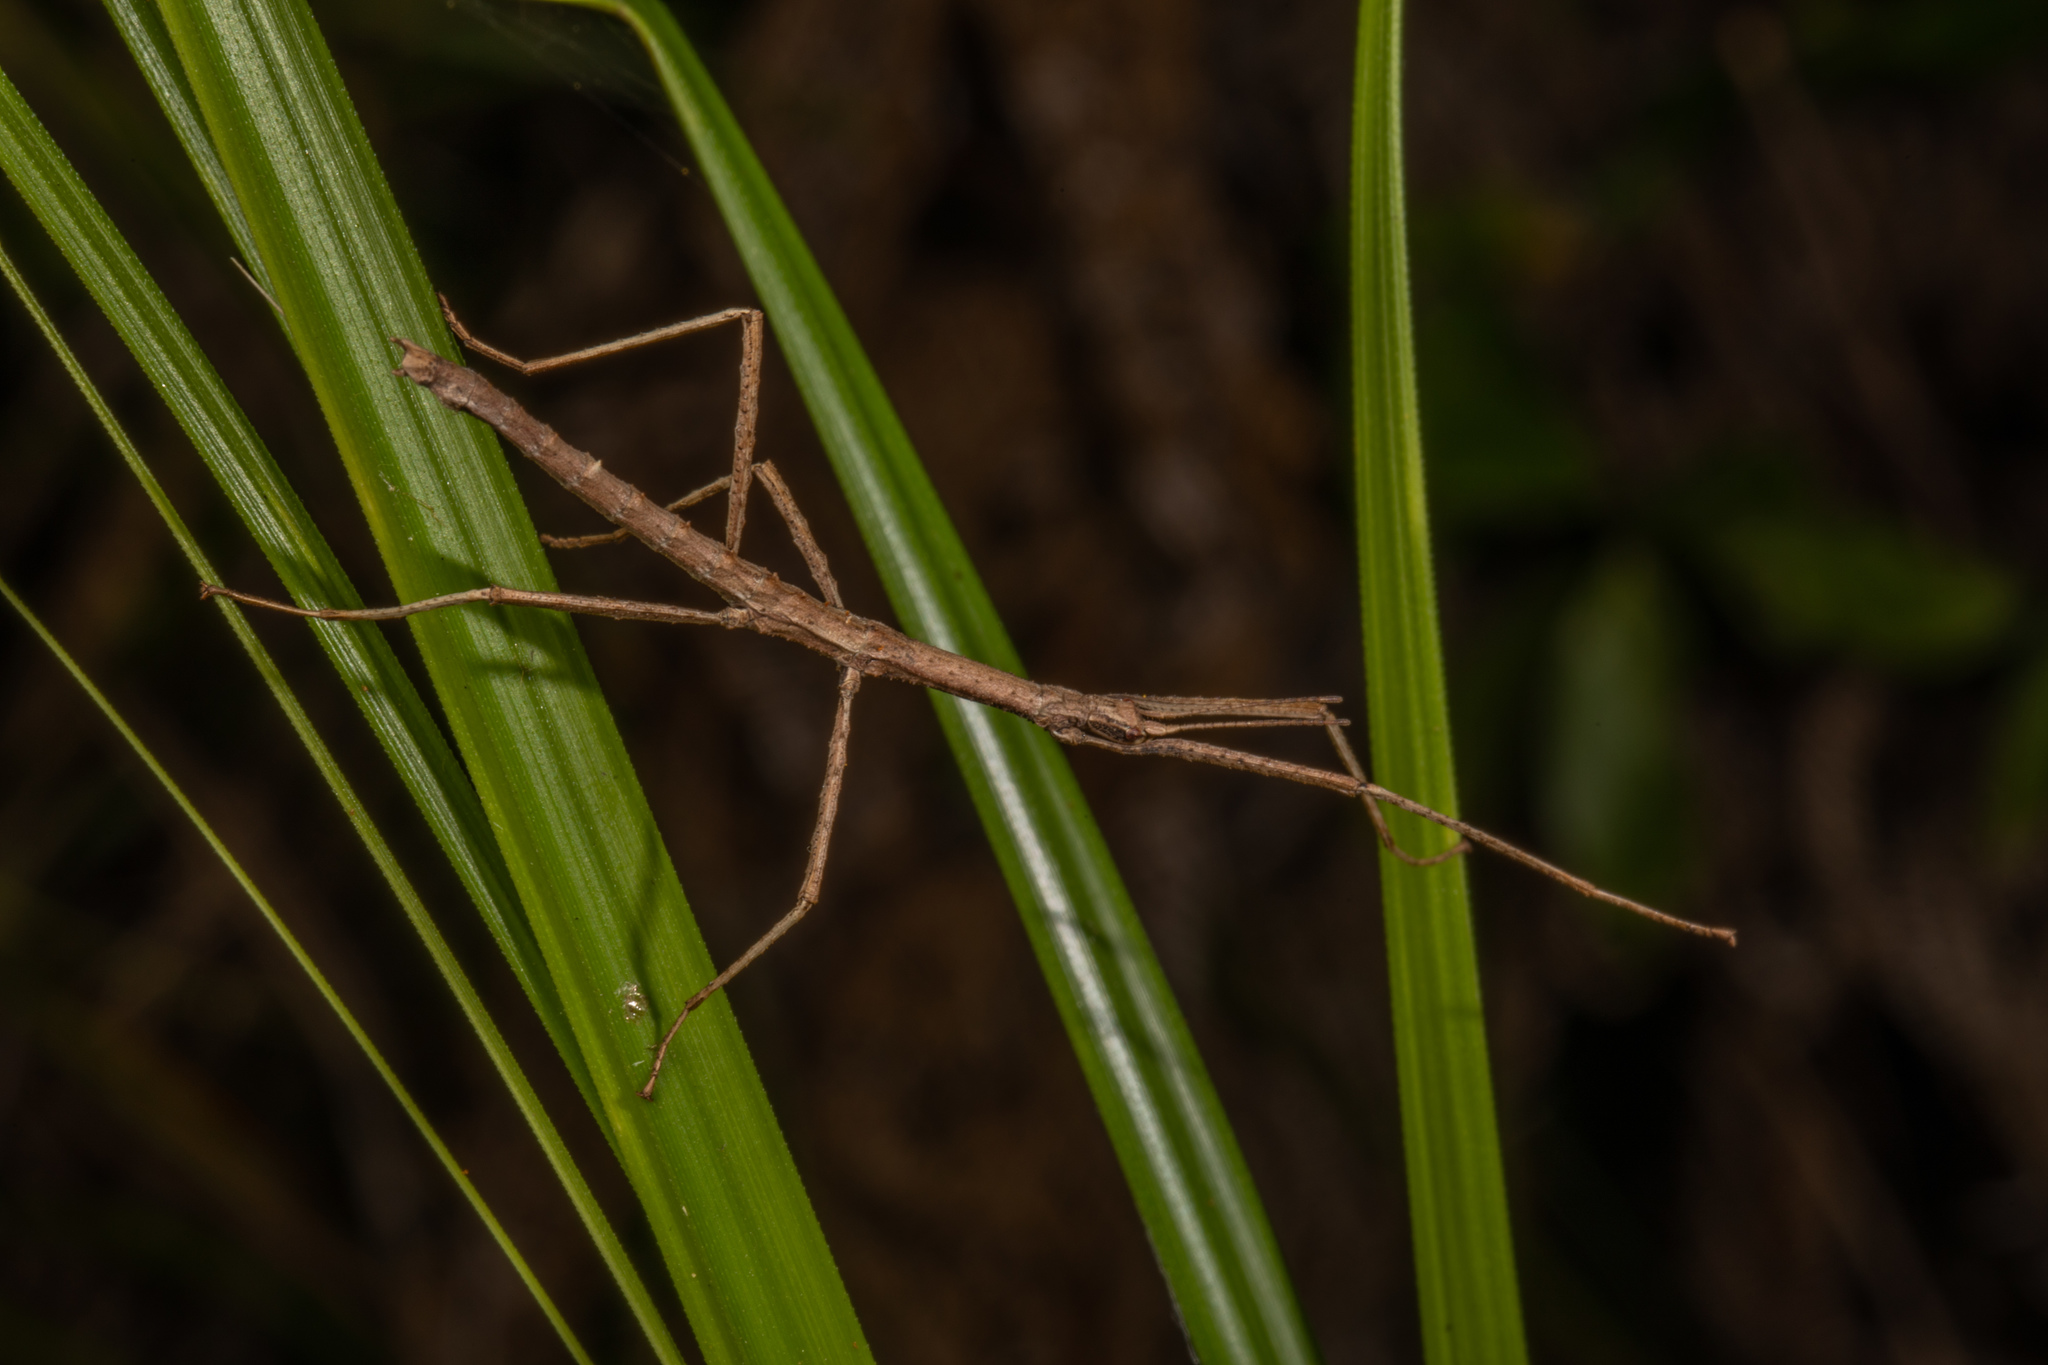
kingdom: Animalia
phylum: Arthropoda
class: Insecta
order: Phasmida
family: Phasmatidae
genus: Spinotectarchus
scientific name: Spinotectarchus acornutus
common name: The spiny ridge-backed stick insect
